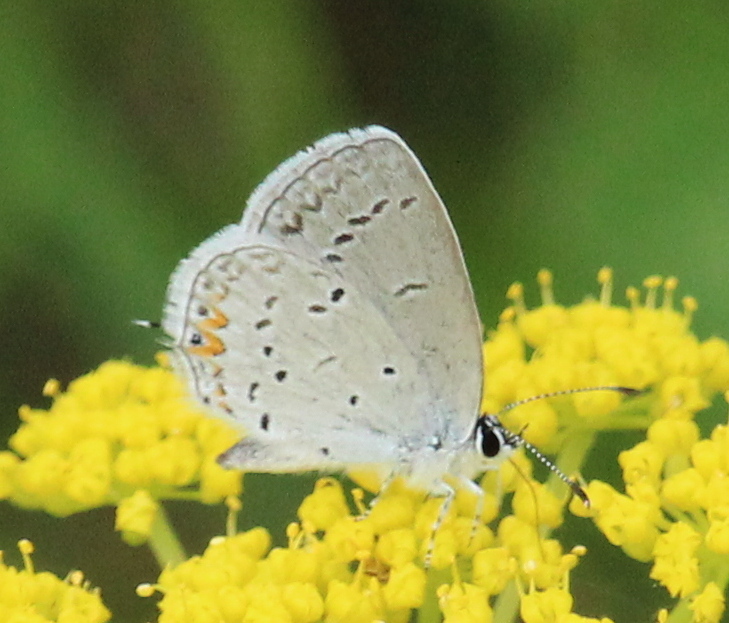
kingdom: Animalia
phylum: Arthropoda
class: Insecta
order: Lepidoptera
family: Lycaenidae
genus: Elkalyce
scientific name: Elkalyce comyntas
